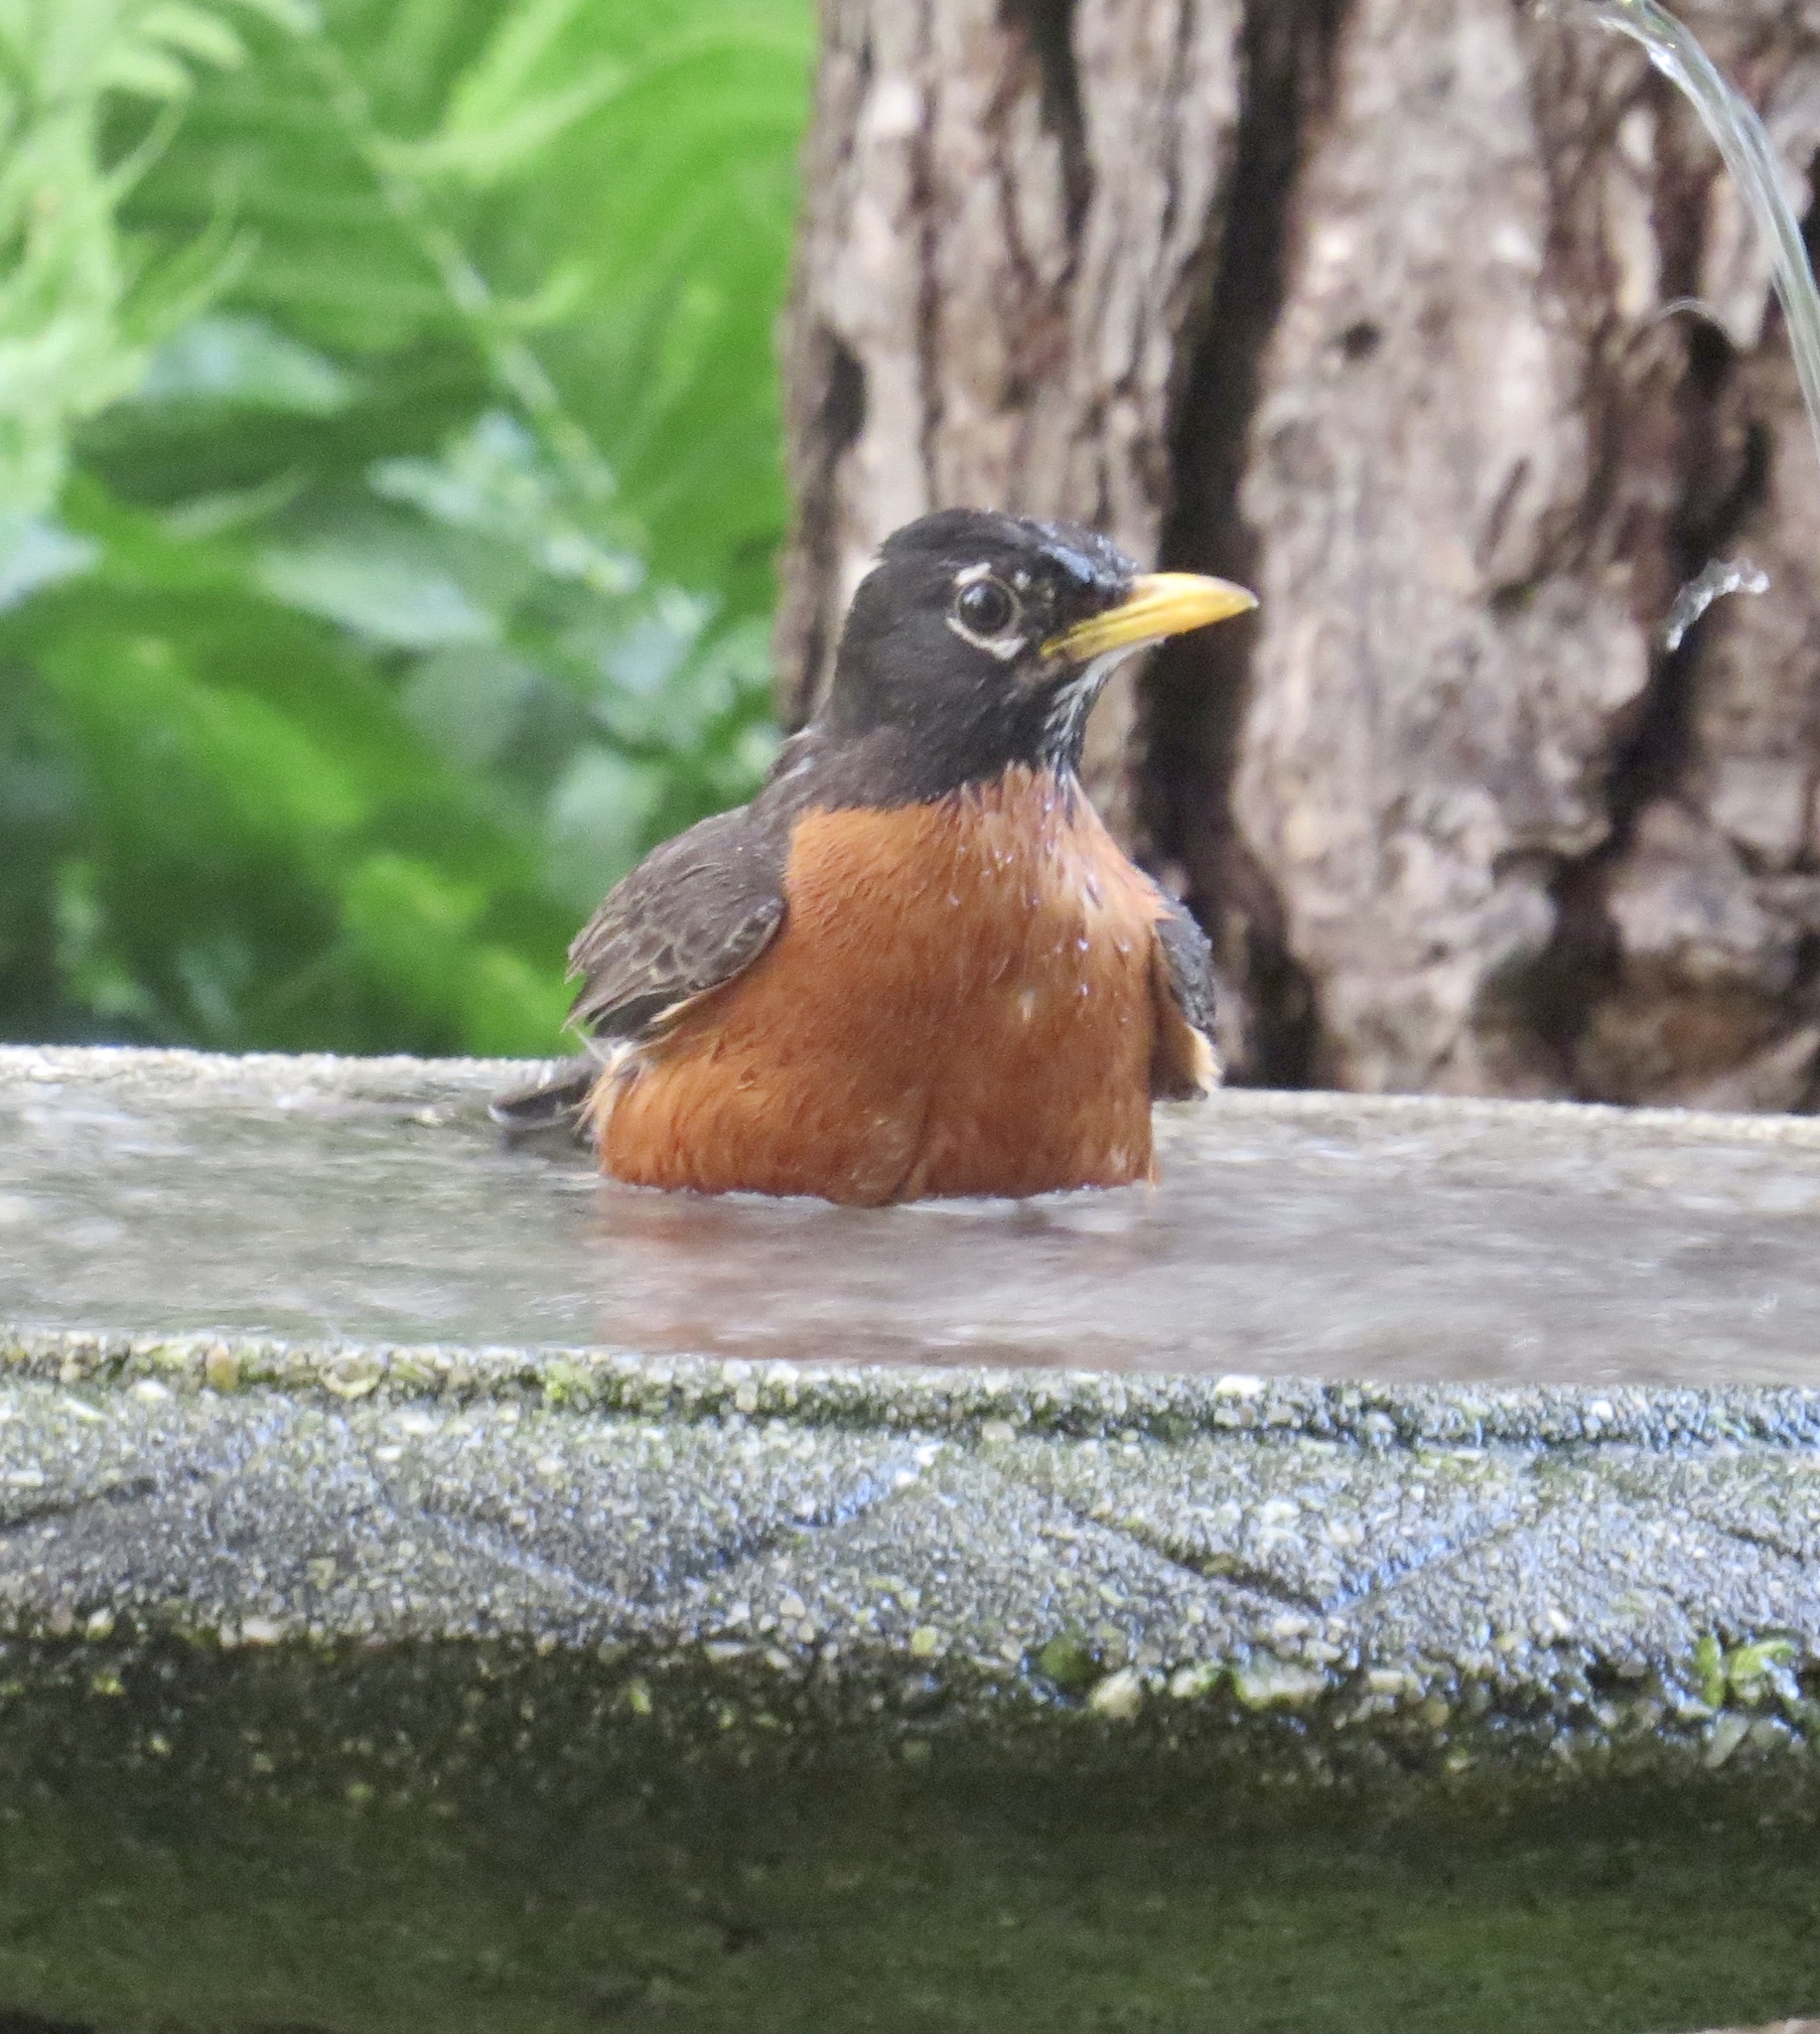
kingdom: Animalia
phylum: Chordata
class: Aves
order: Passeriformes
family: Turdidae
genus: Turdus
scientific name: Turdus migratorius
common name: American robin
